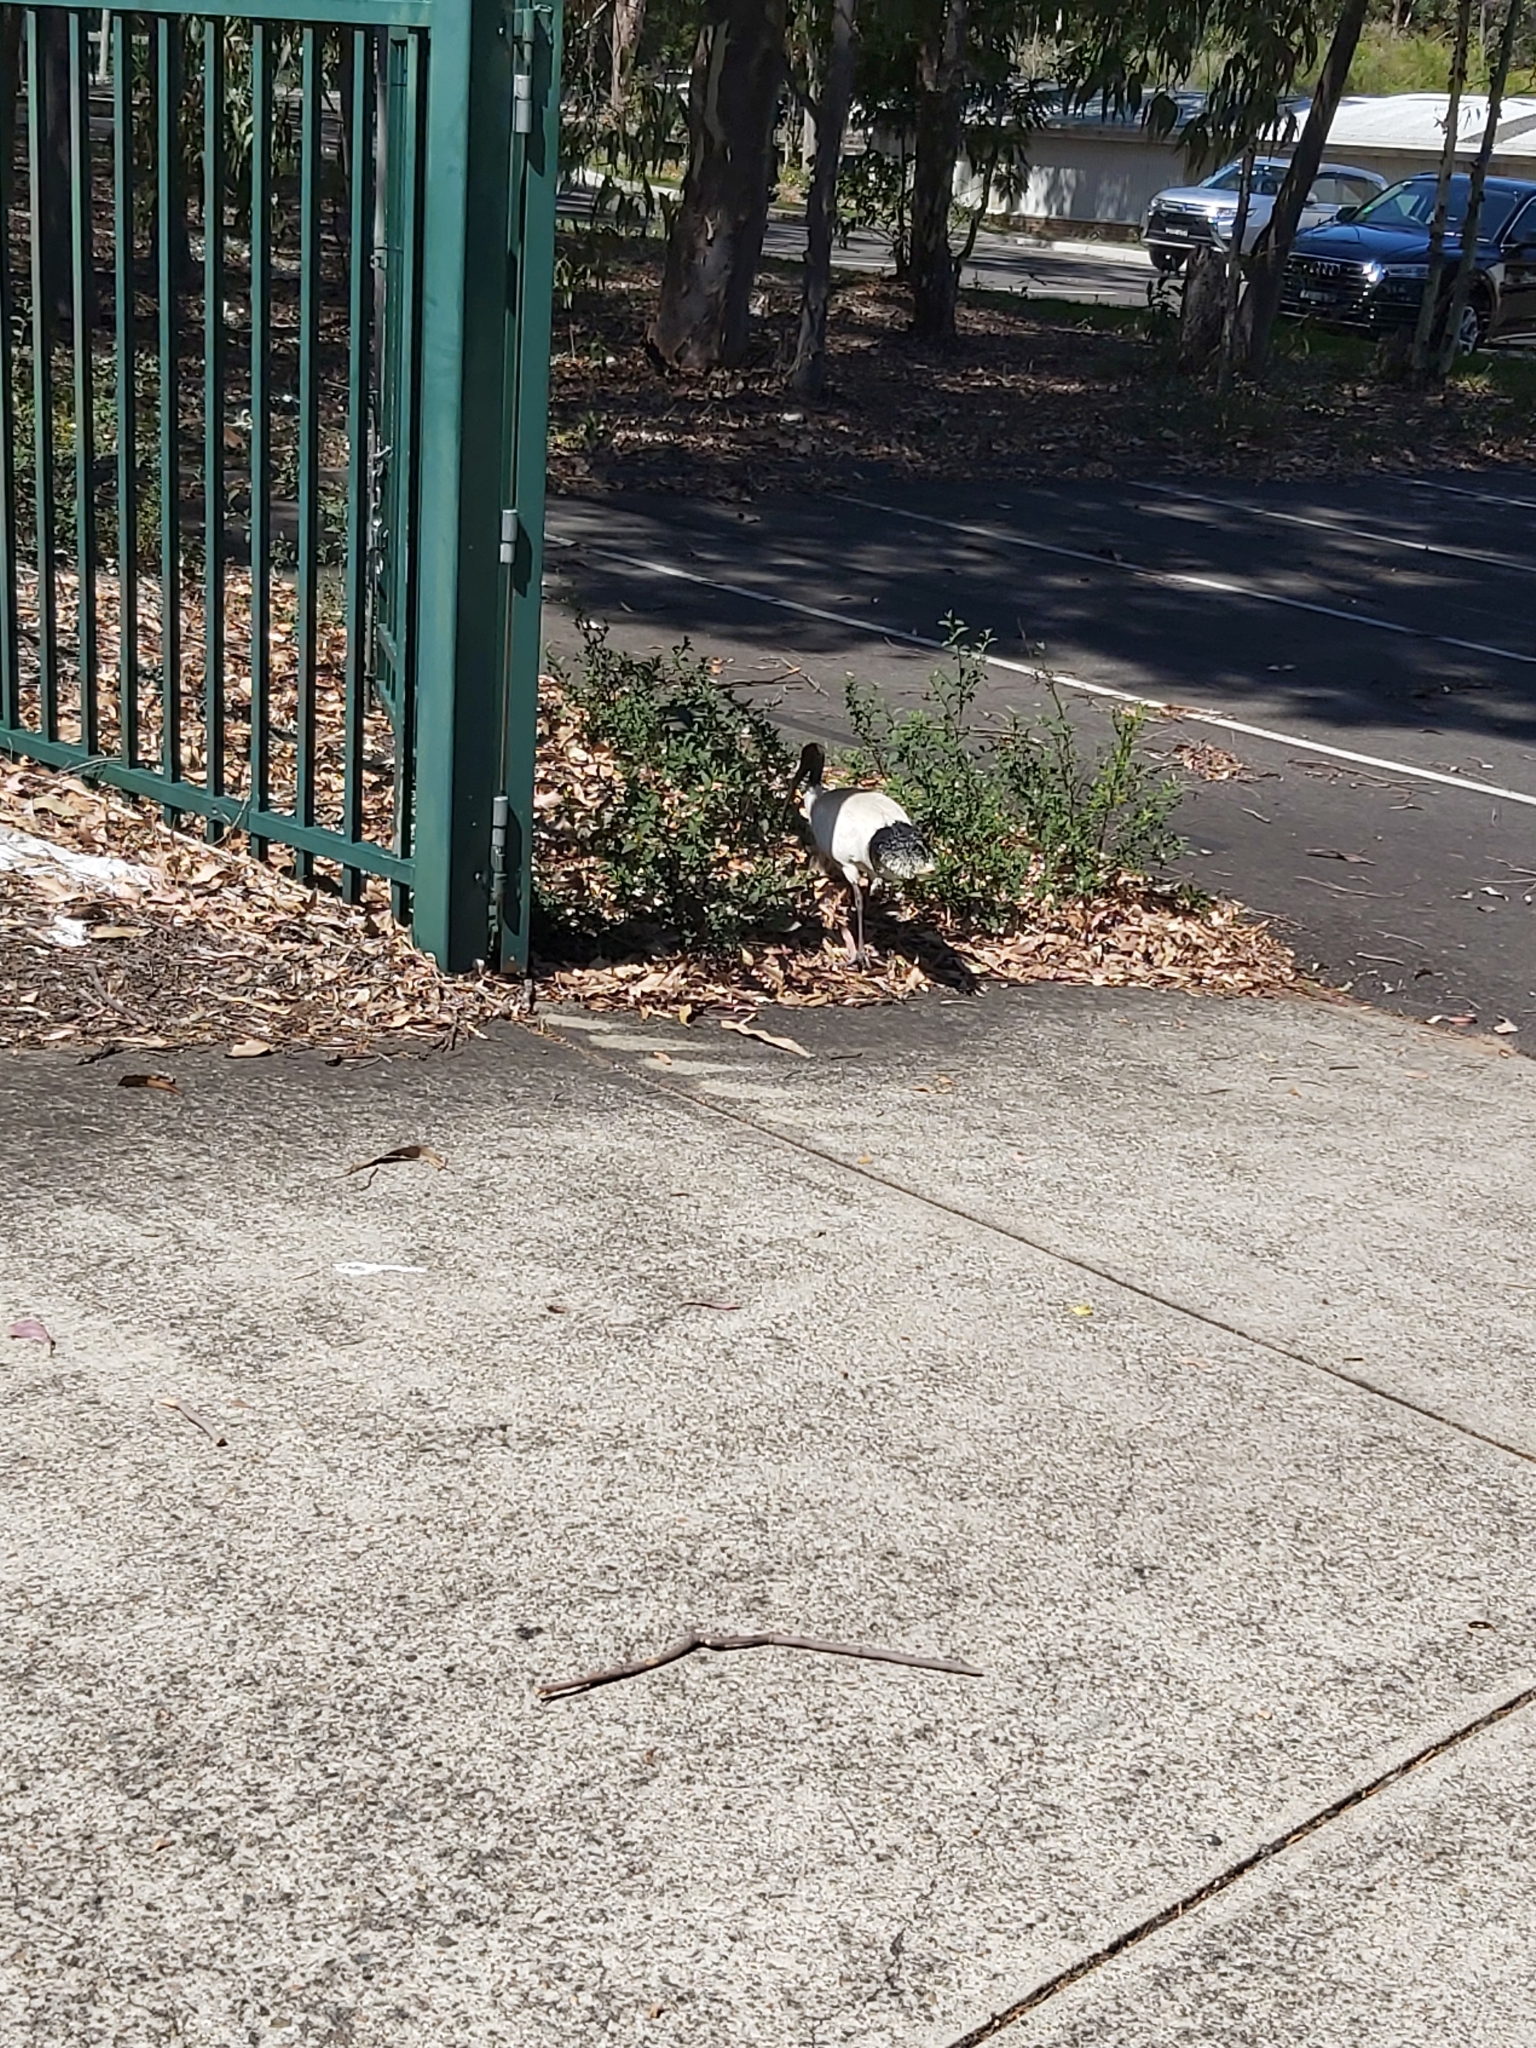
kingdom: Animalia
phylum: Chordata
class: Aves
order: Pelecaniformes
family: Threskiornithidae
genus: Threskiornis
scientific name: Threskiornis molucca
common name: Australian white ibis
